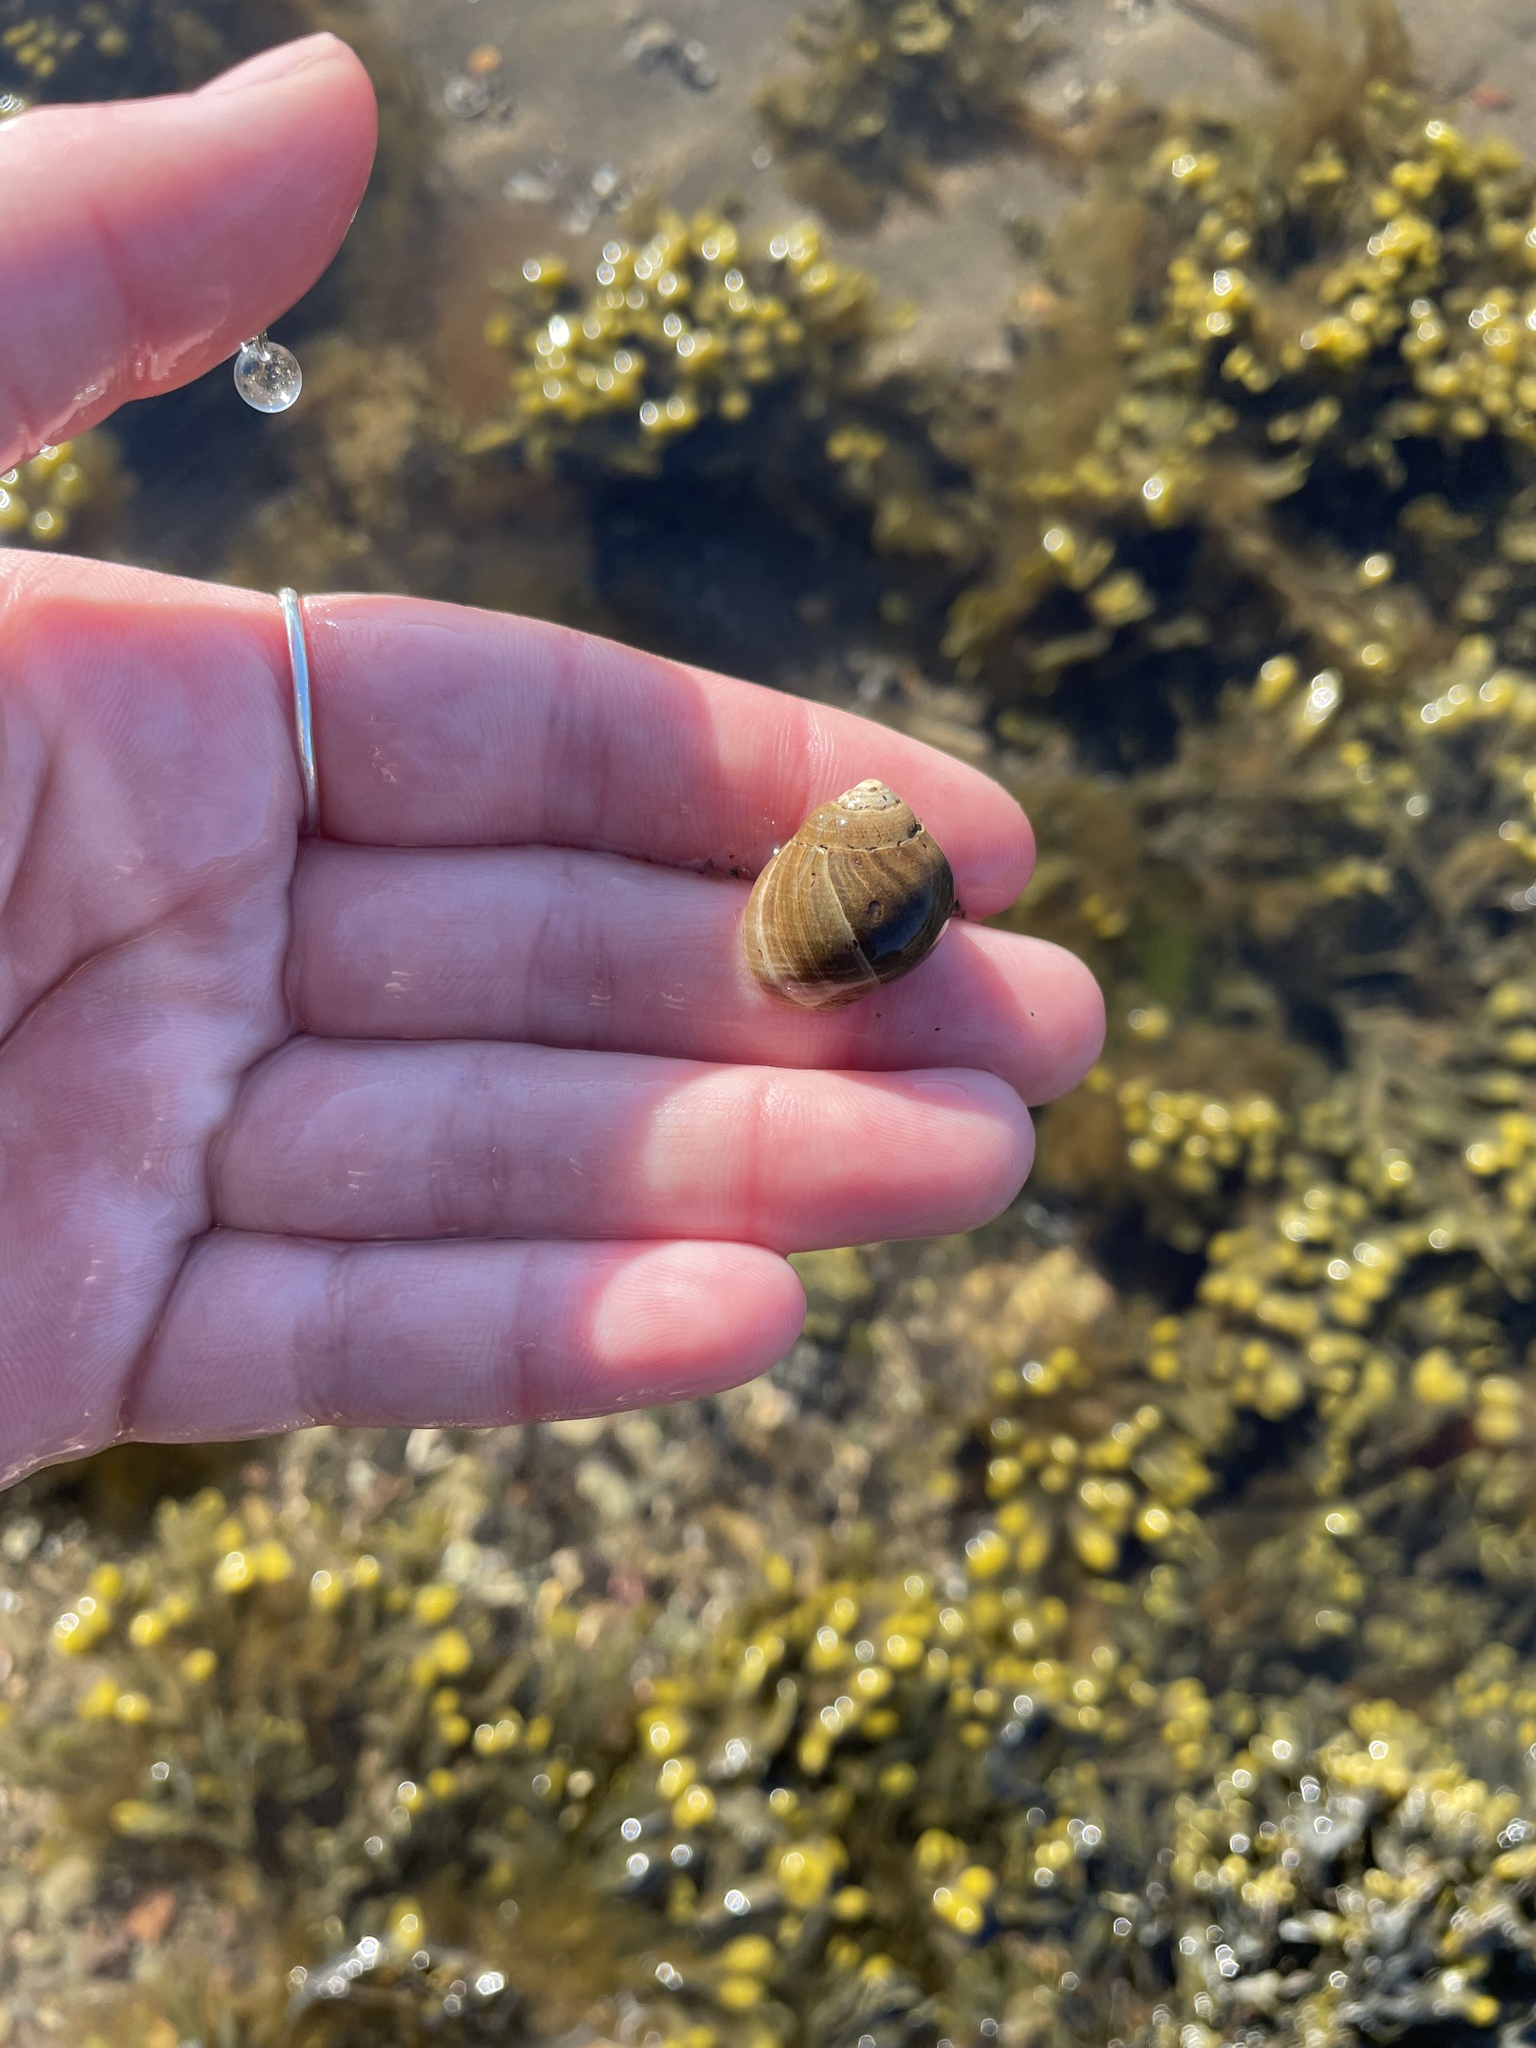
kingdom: Animalia
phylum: Mollusca
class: Gastropoda
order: Littorinimorpha
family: Littorinidae
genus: Littorina
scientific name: Littorina littorea
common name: Common periwinkle
